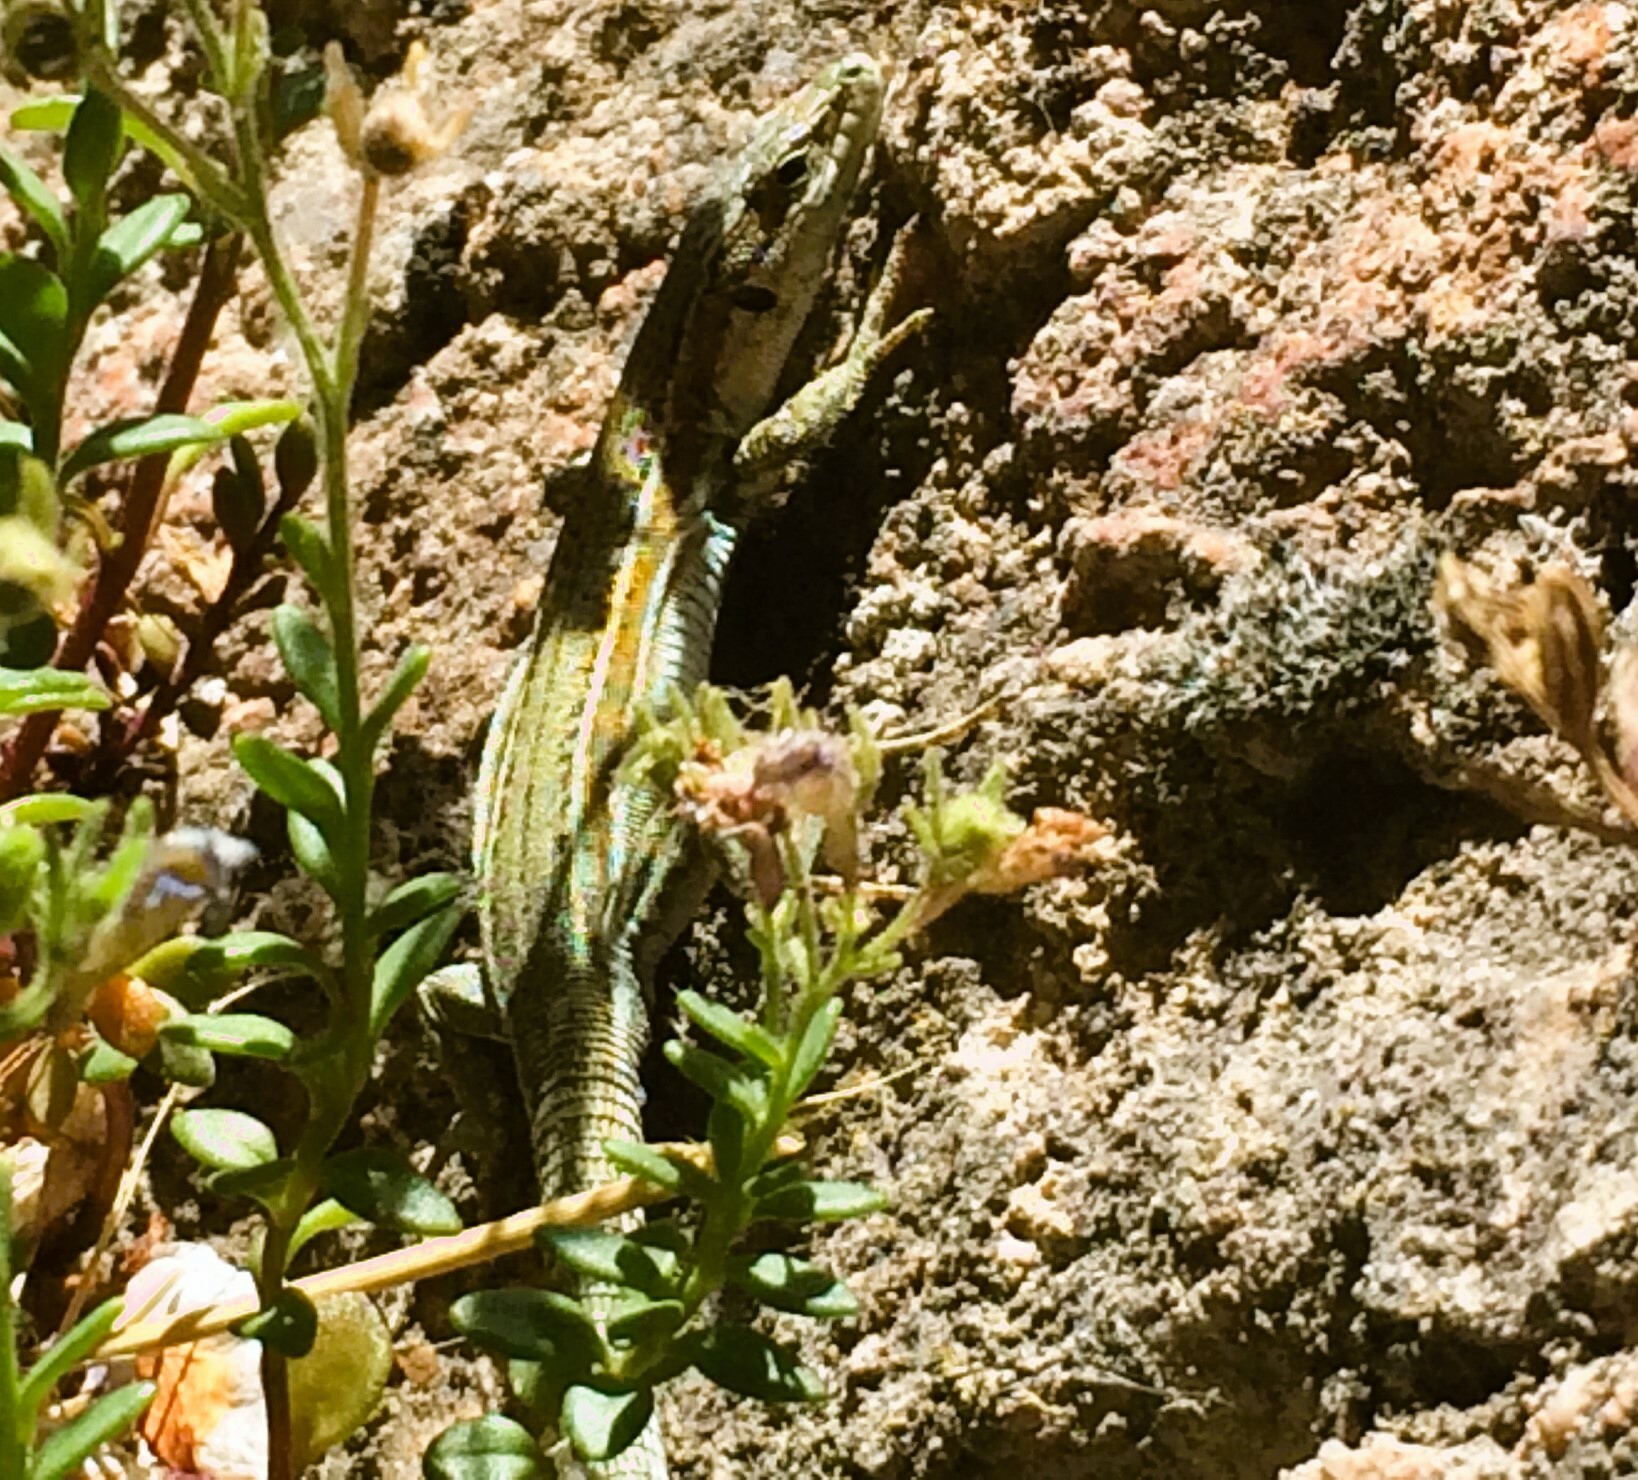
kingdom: Animalia
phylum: Chordata
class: Squamata
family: Lacertidae
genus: Podarcis
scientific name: Podarcis virescens
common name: Geniez’s wall lizard
